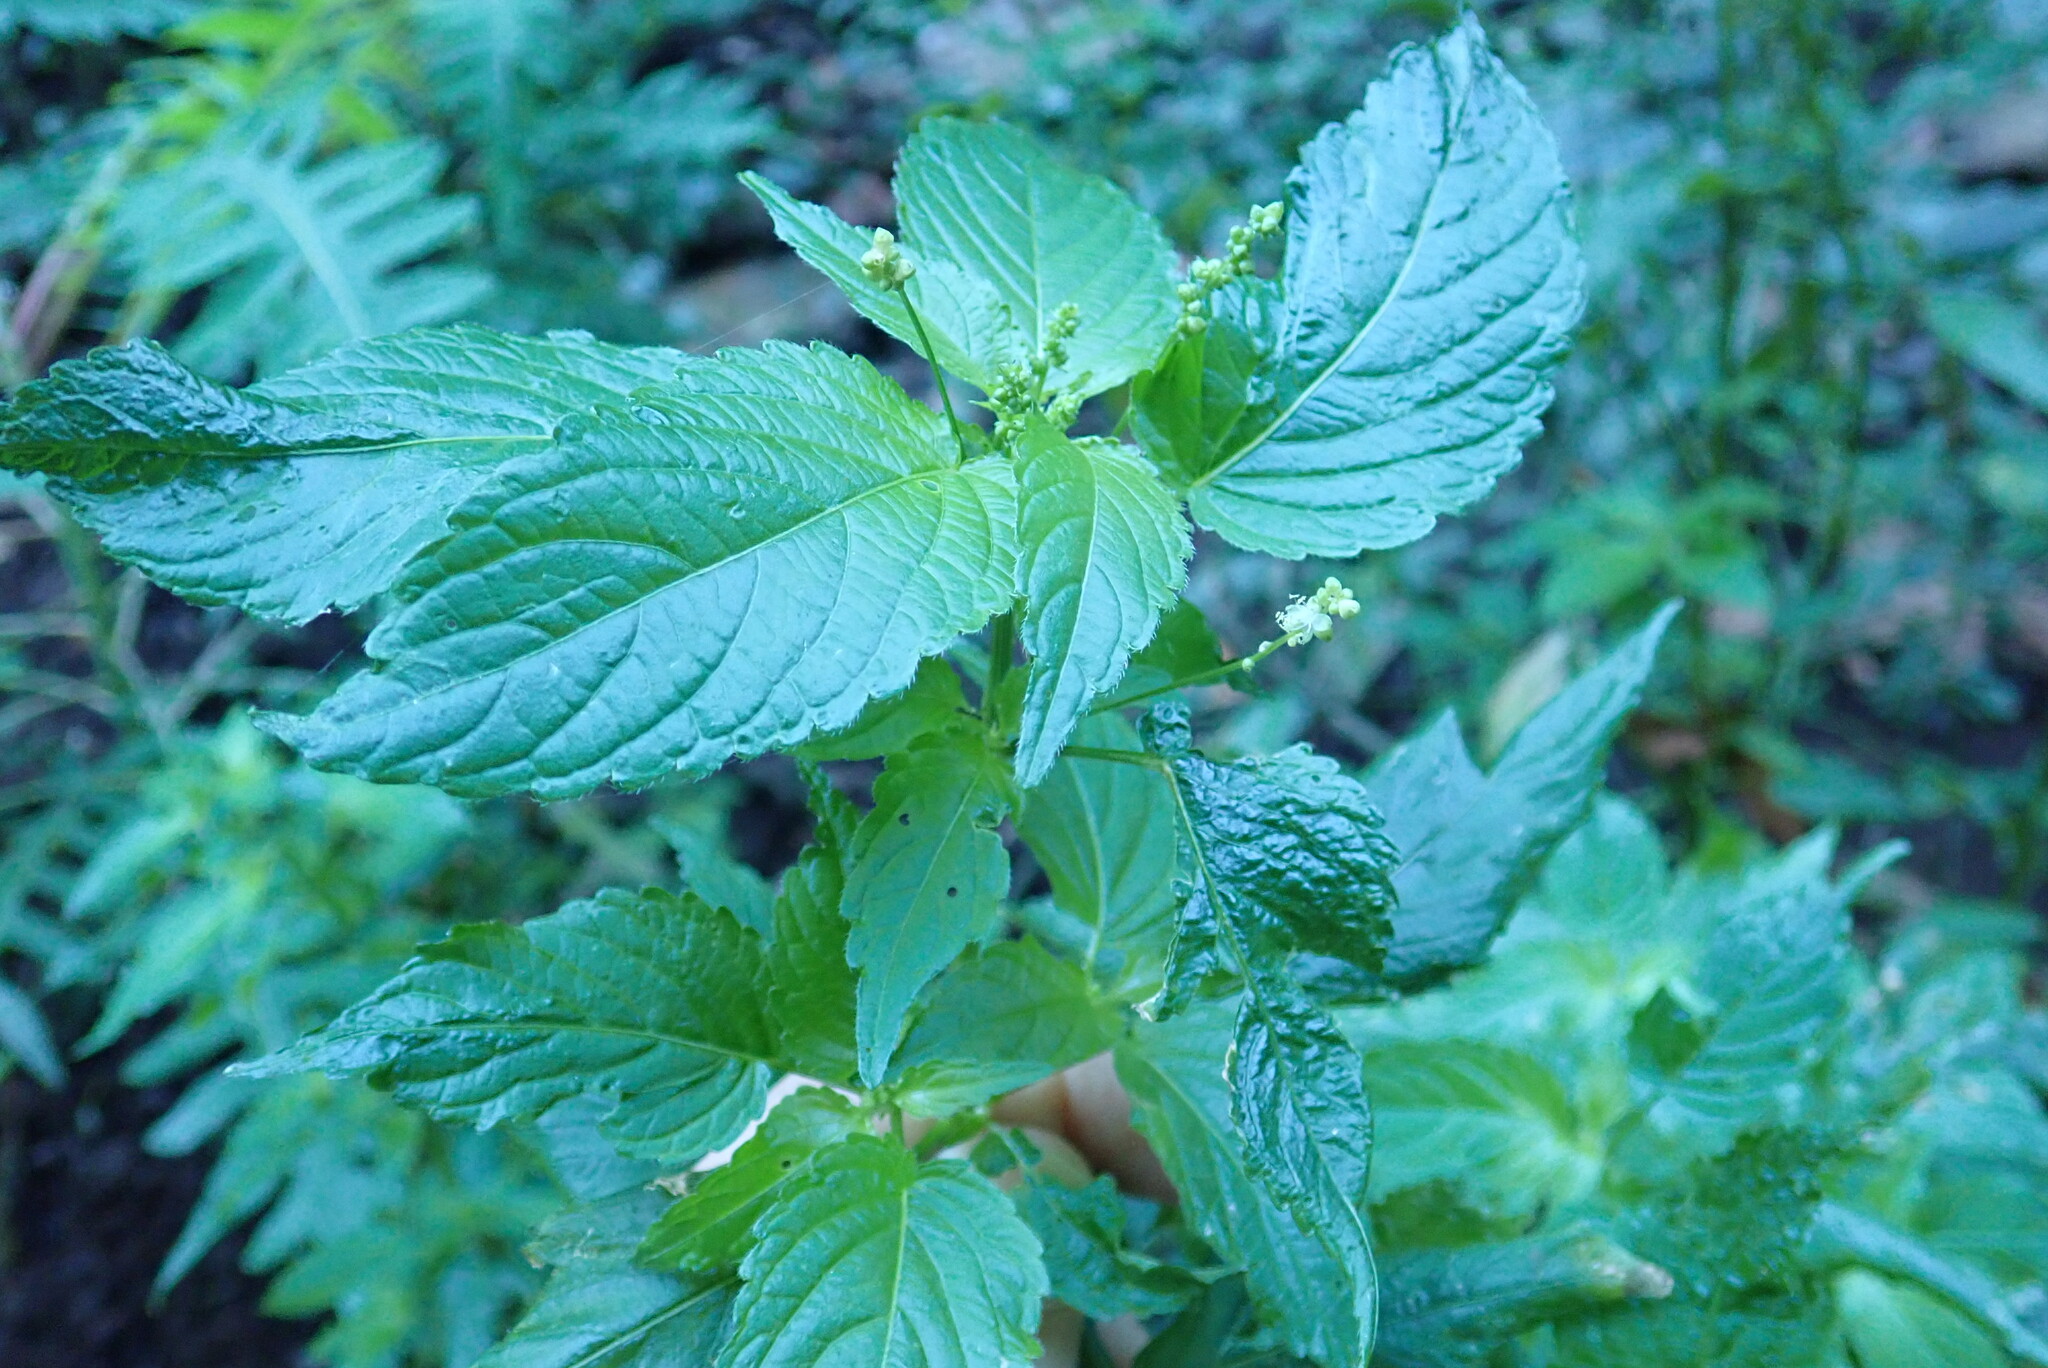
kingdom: Plantae
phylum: Tracheophyta
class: Magnoliopsida
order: Malpighiales
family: Euphorbiaceae
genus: Mercurialis
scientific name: Mercurialis annua
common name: Annual mercury
